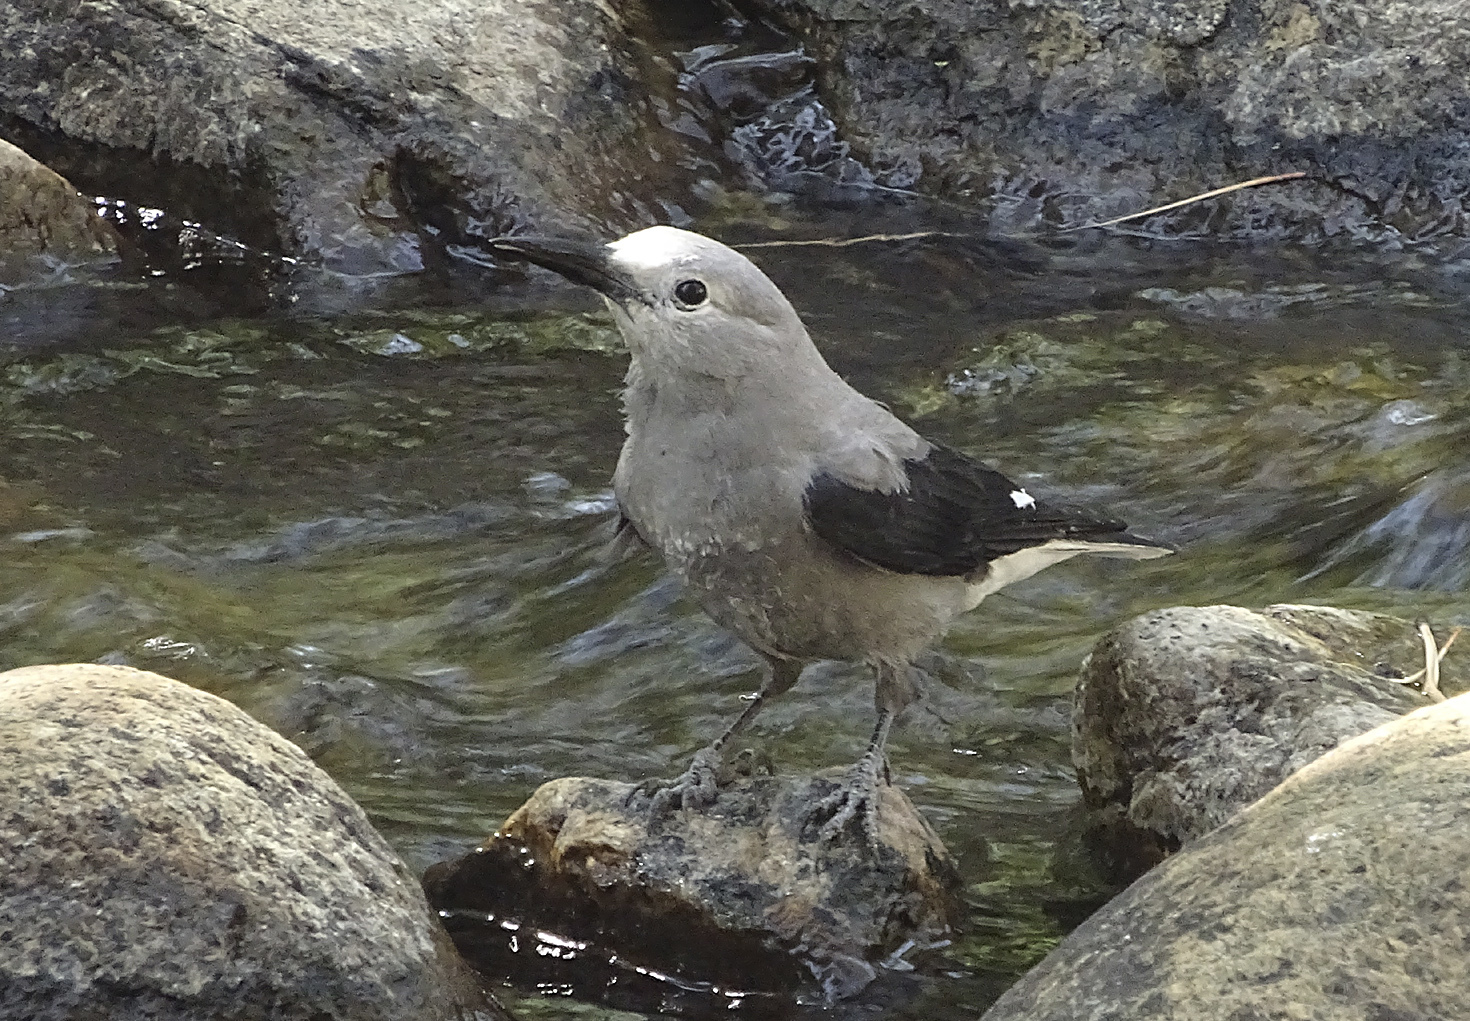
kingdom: Animalia
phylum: Chordata
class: Aves
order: Passeriformes
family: Corvidae
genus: Nucifraga
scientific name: Nucifraga columbiana
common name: Clark's nutcracker
